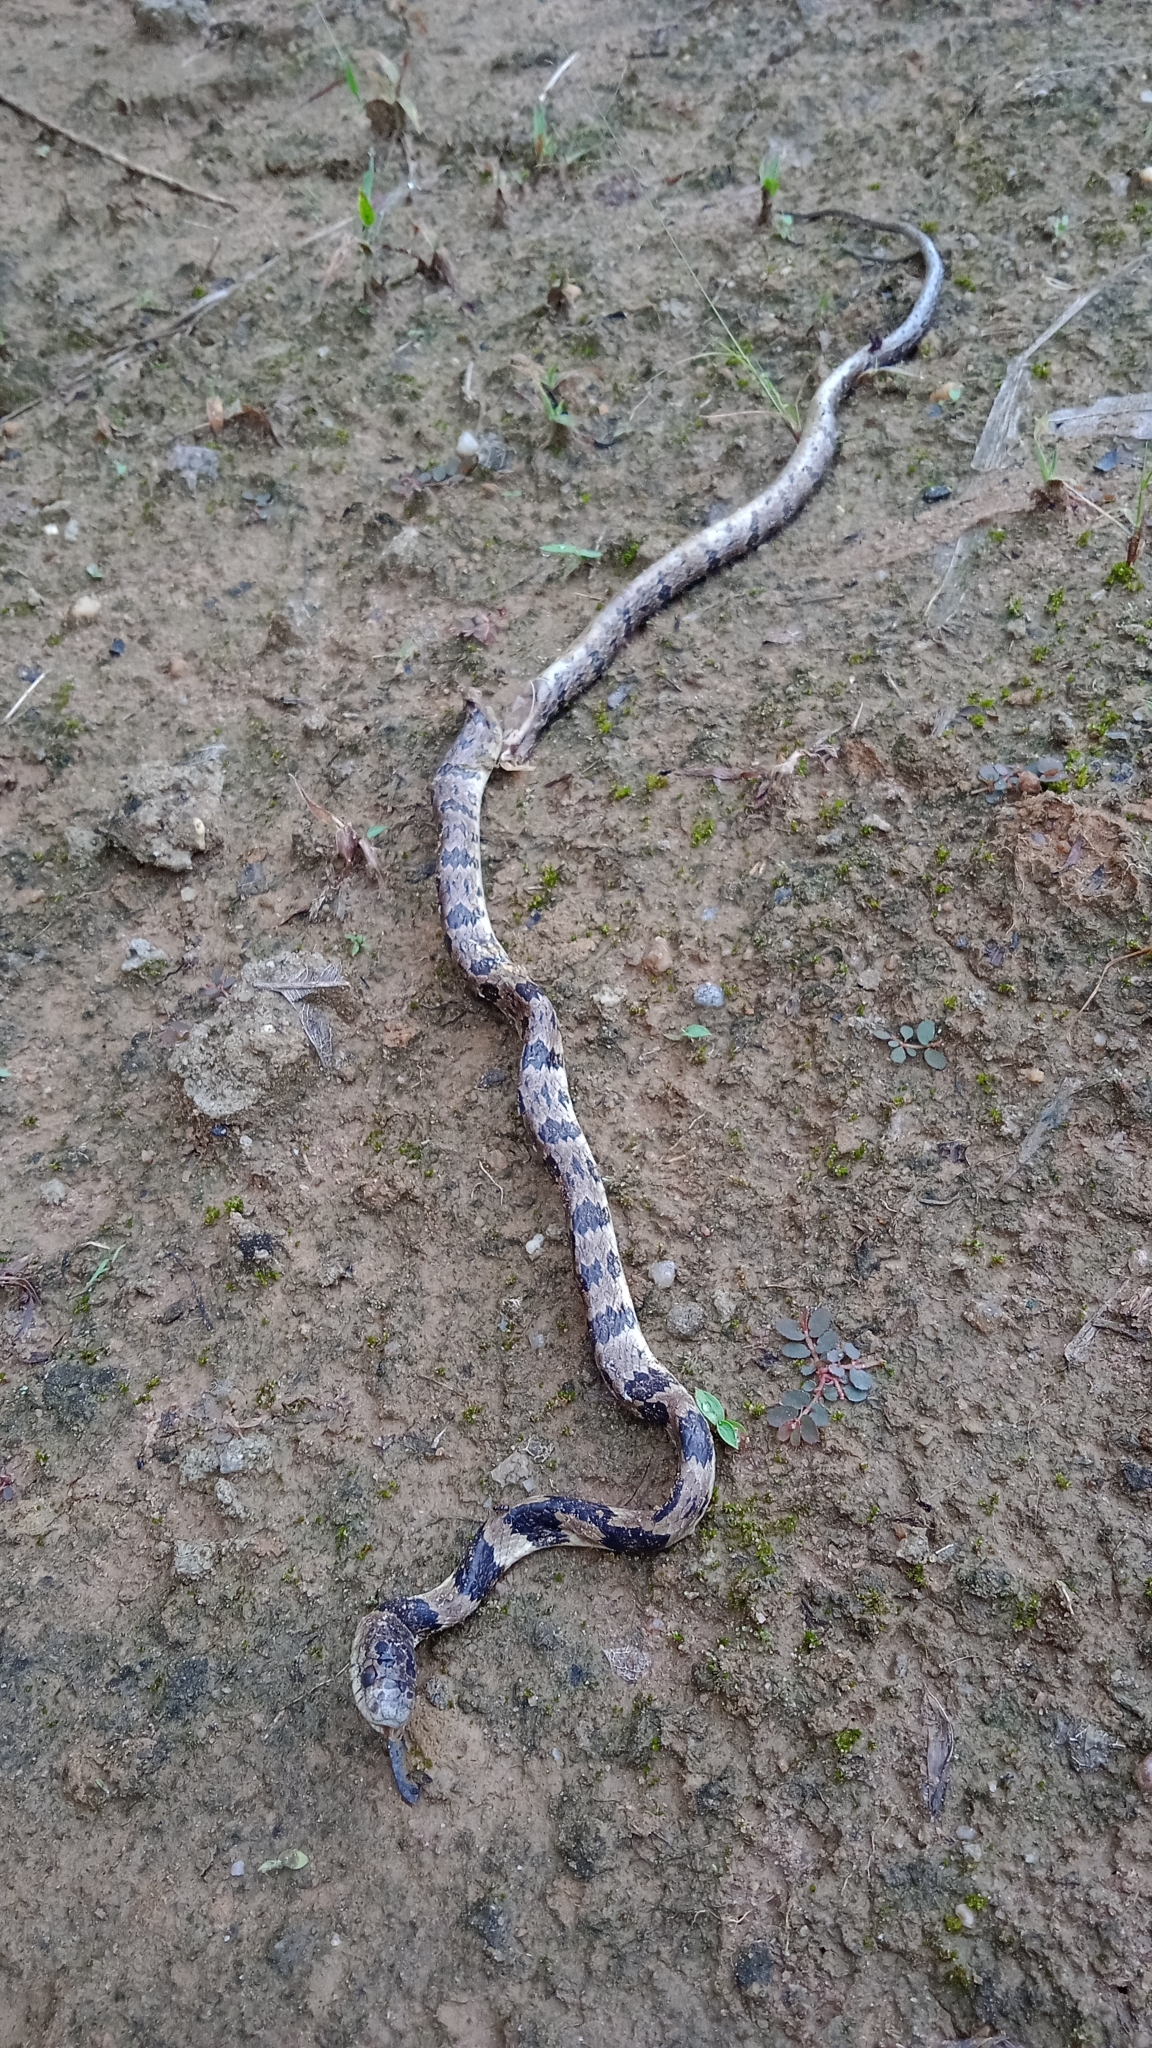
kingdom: Animalia
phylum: Chordata
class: Squamata
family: Colubridae
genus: Dipsas
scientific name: Dipsas neuwiedi
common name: Neuwied's tree snake
